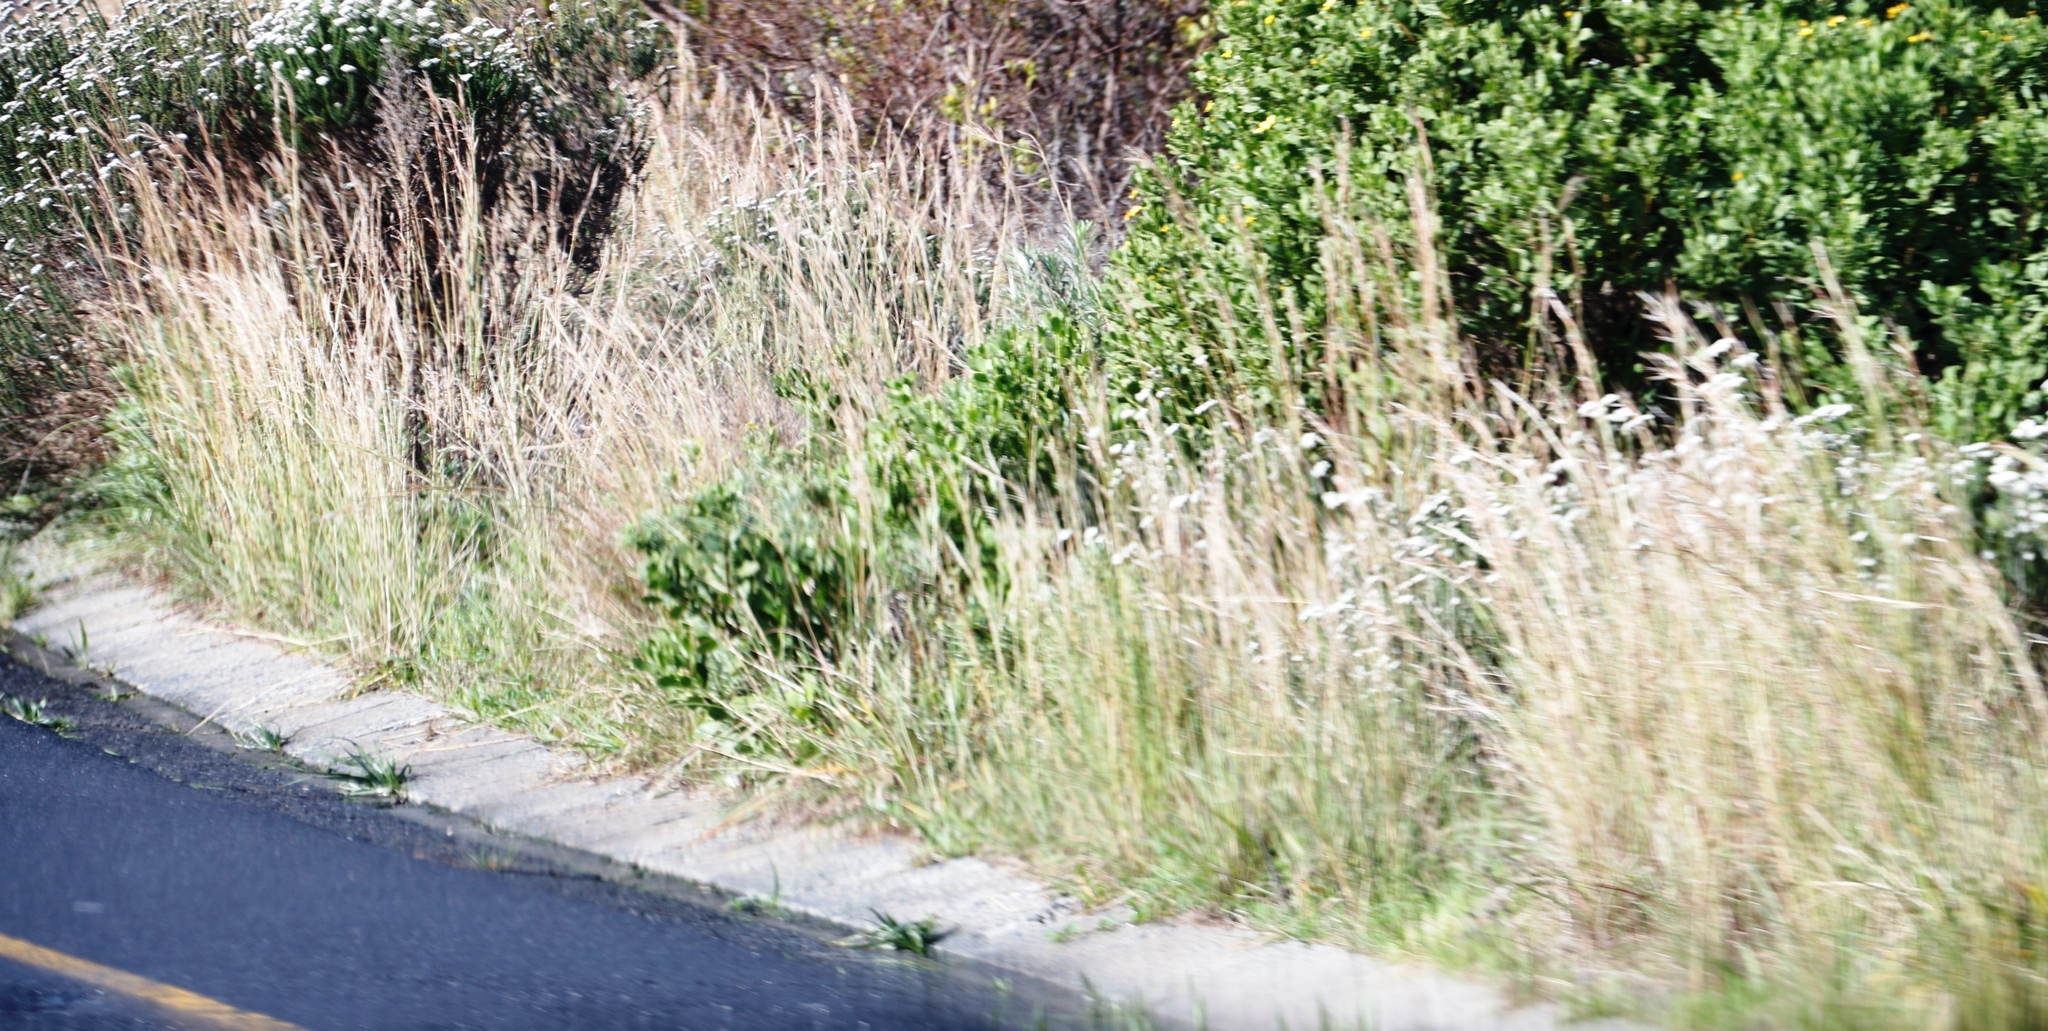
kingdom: Plantae
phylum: Tracheophyta
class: Liliopsida
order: Poales
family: Poaceae
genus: Hyparrhenia
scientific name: Hyparrhenia hirta
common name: Thatching grass
